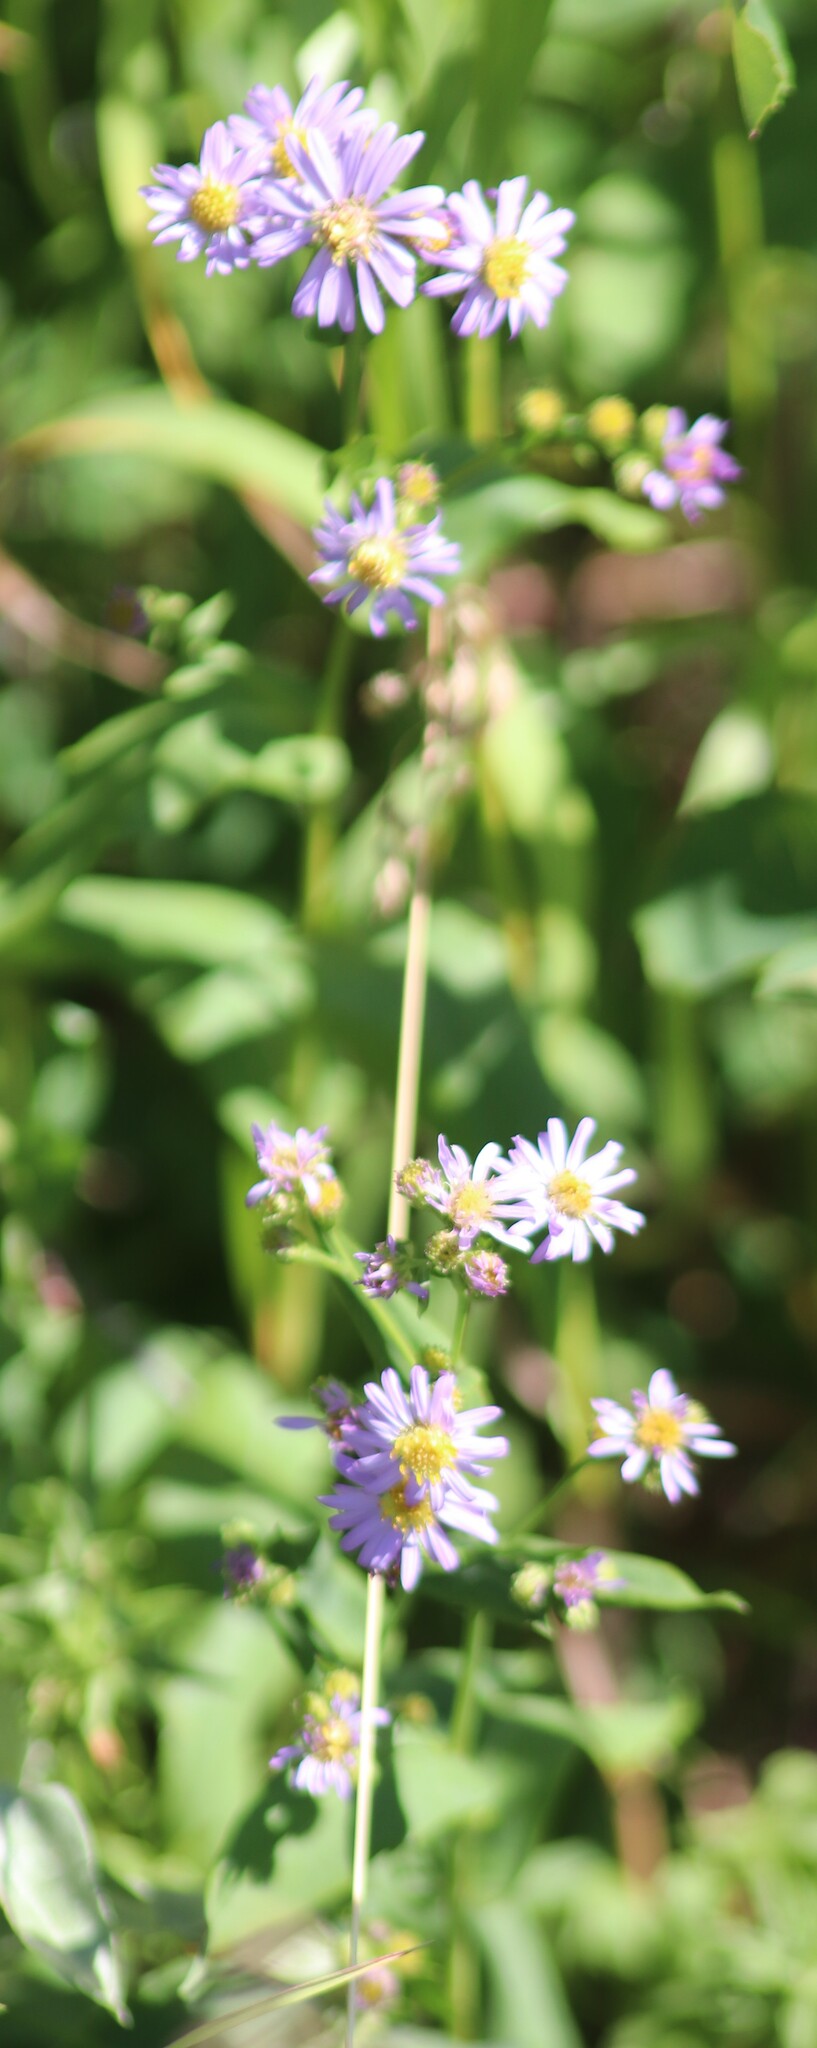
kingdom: Plantae
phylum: Tracheophyta
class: Magnoliopsida
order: Asterales
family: Asteraceae
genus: Symphyotrichum
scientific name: Symphyotrichum laeve
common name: Glaucous aster
